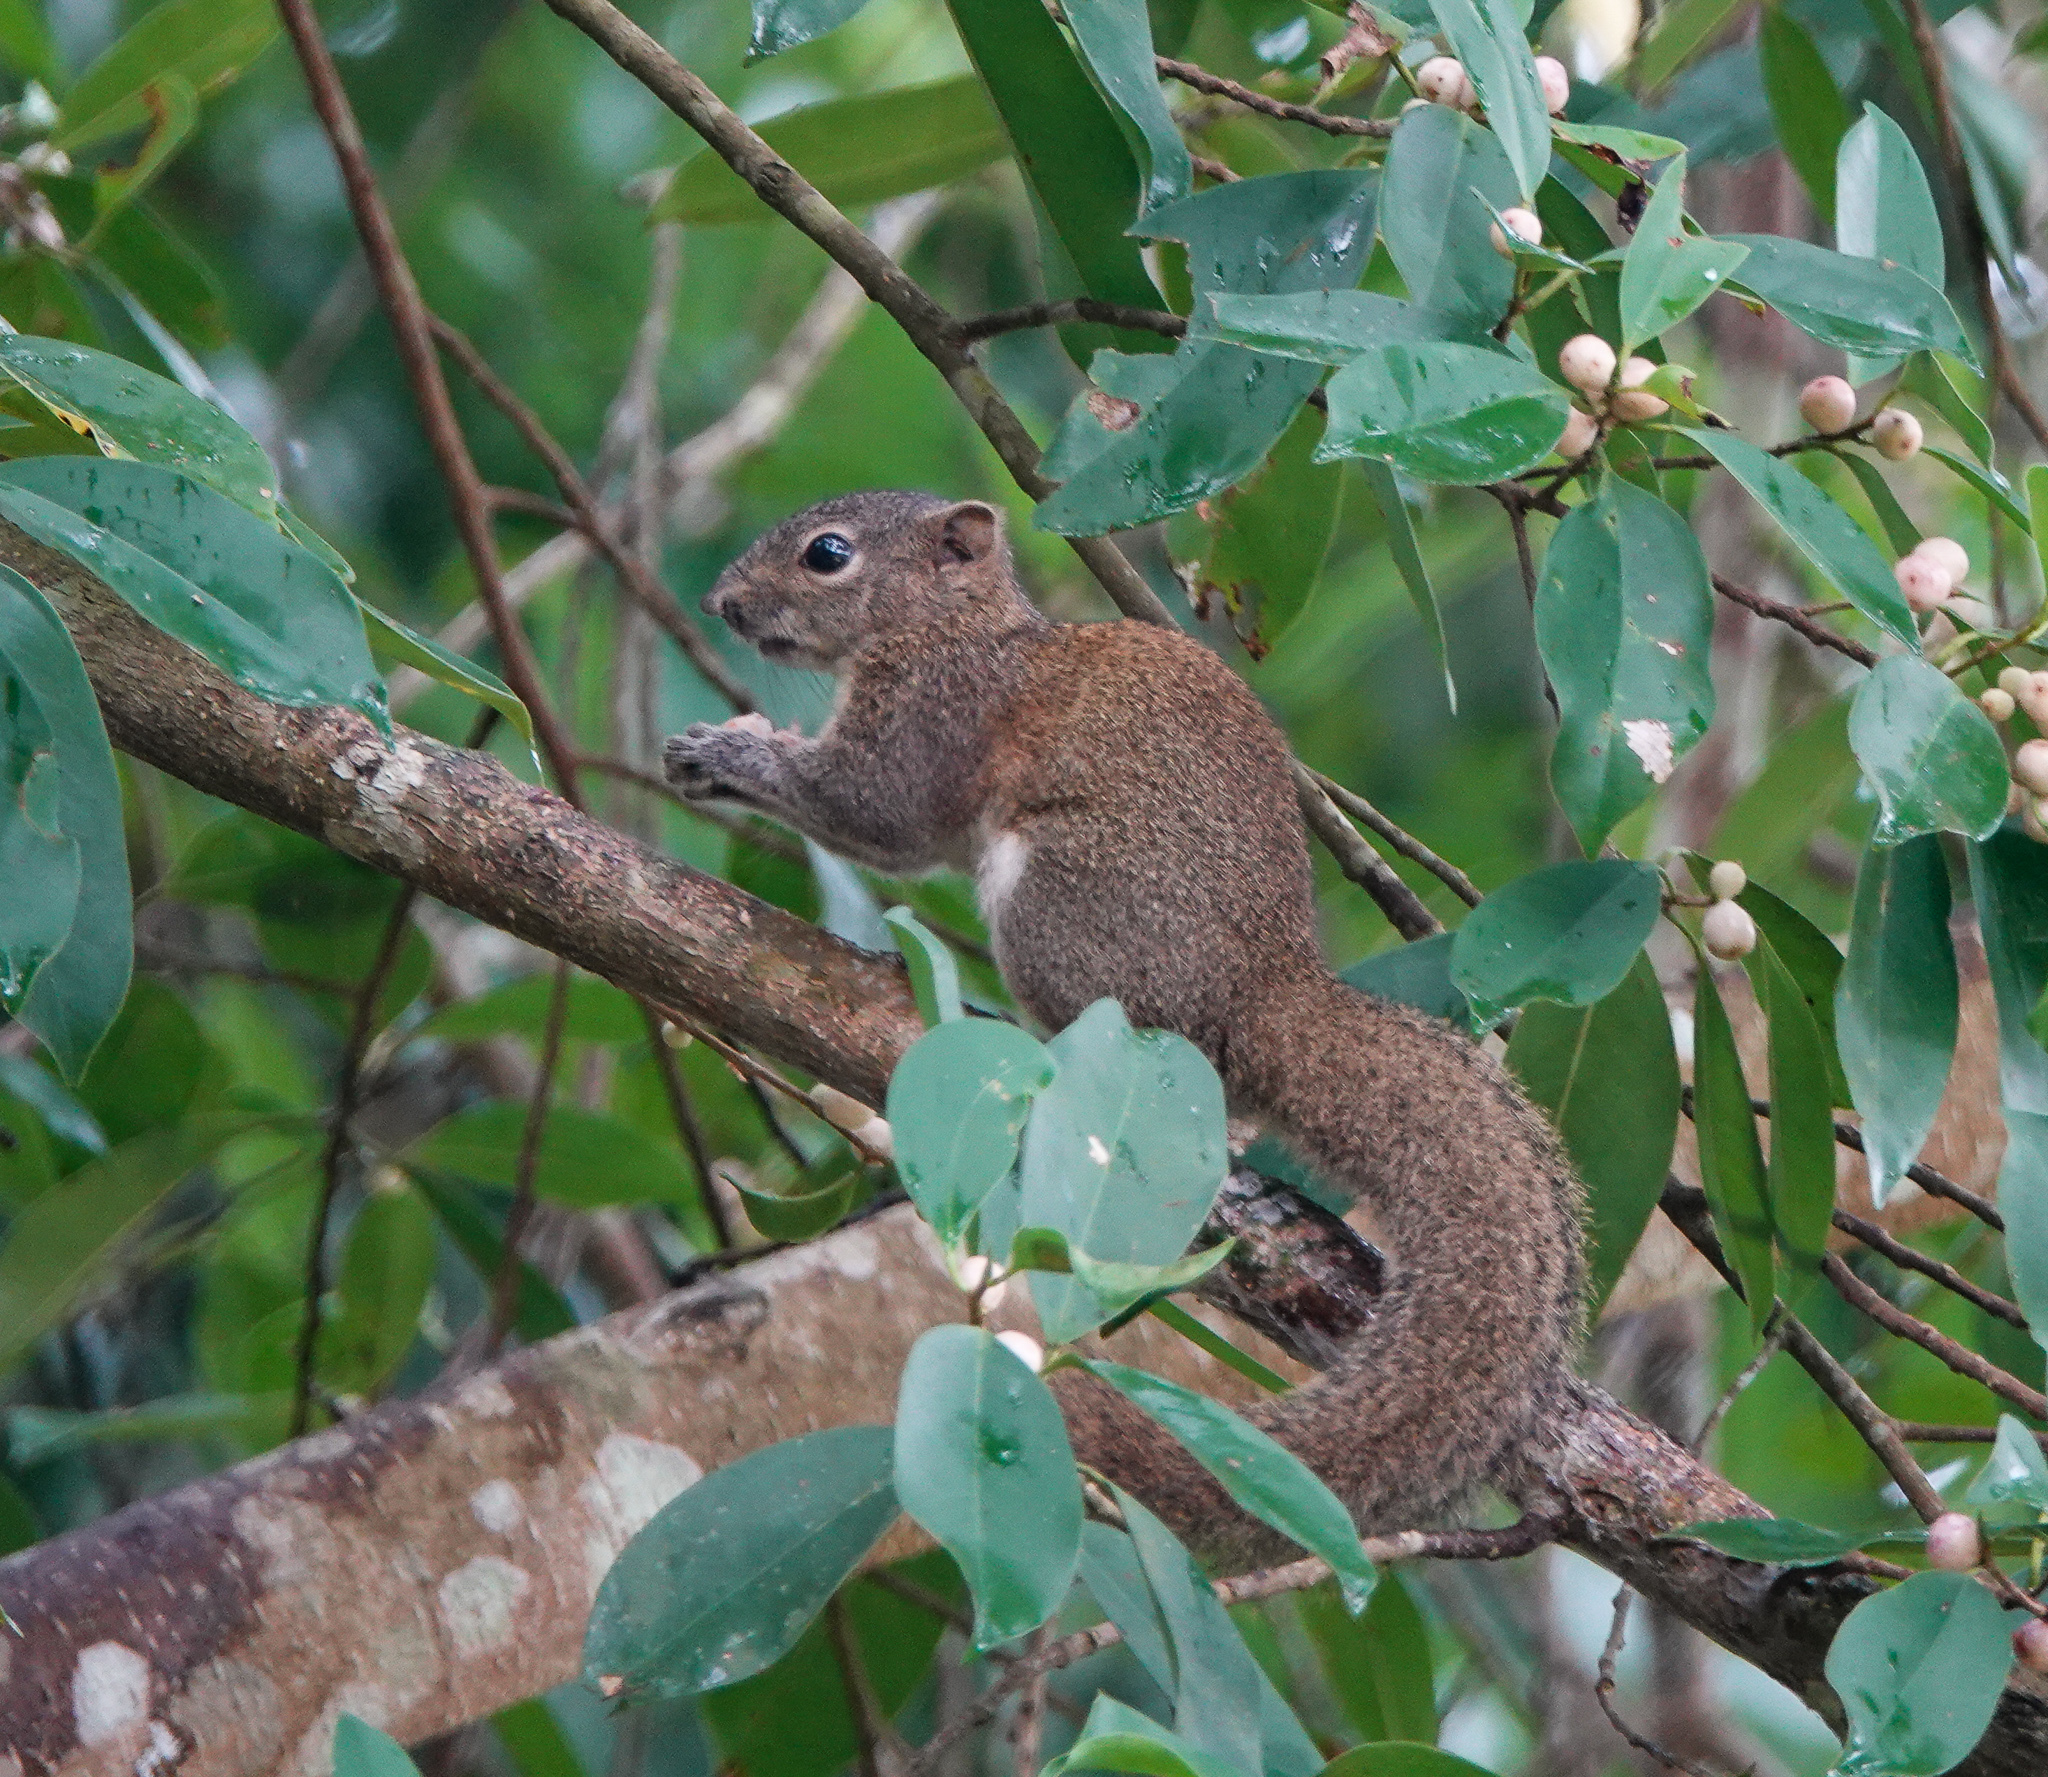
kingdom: Animalia
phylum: Chordata
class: Mammalia
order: Rodentia
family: Sciuridae
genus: Callosciurus
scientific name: Callosciurus pygerythrus
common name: Irrawaddy squirrel
